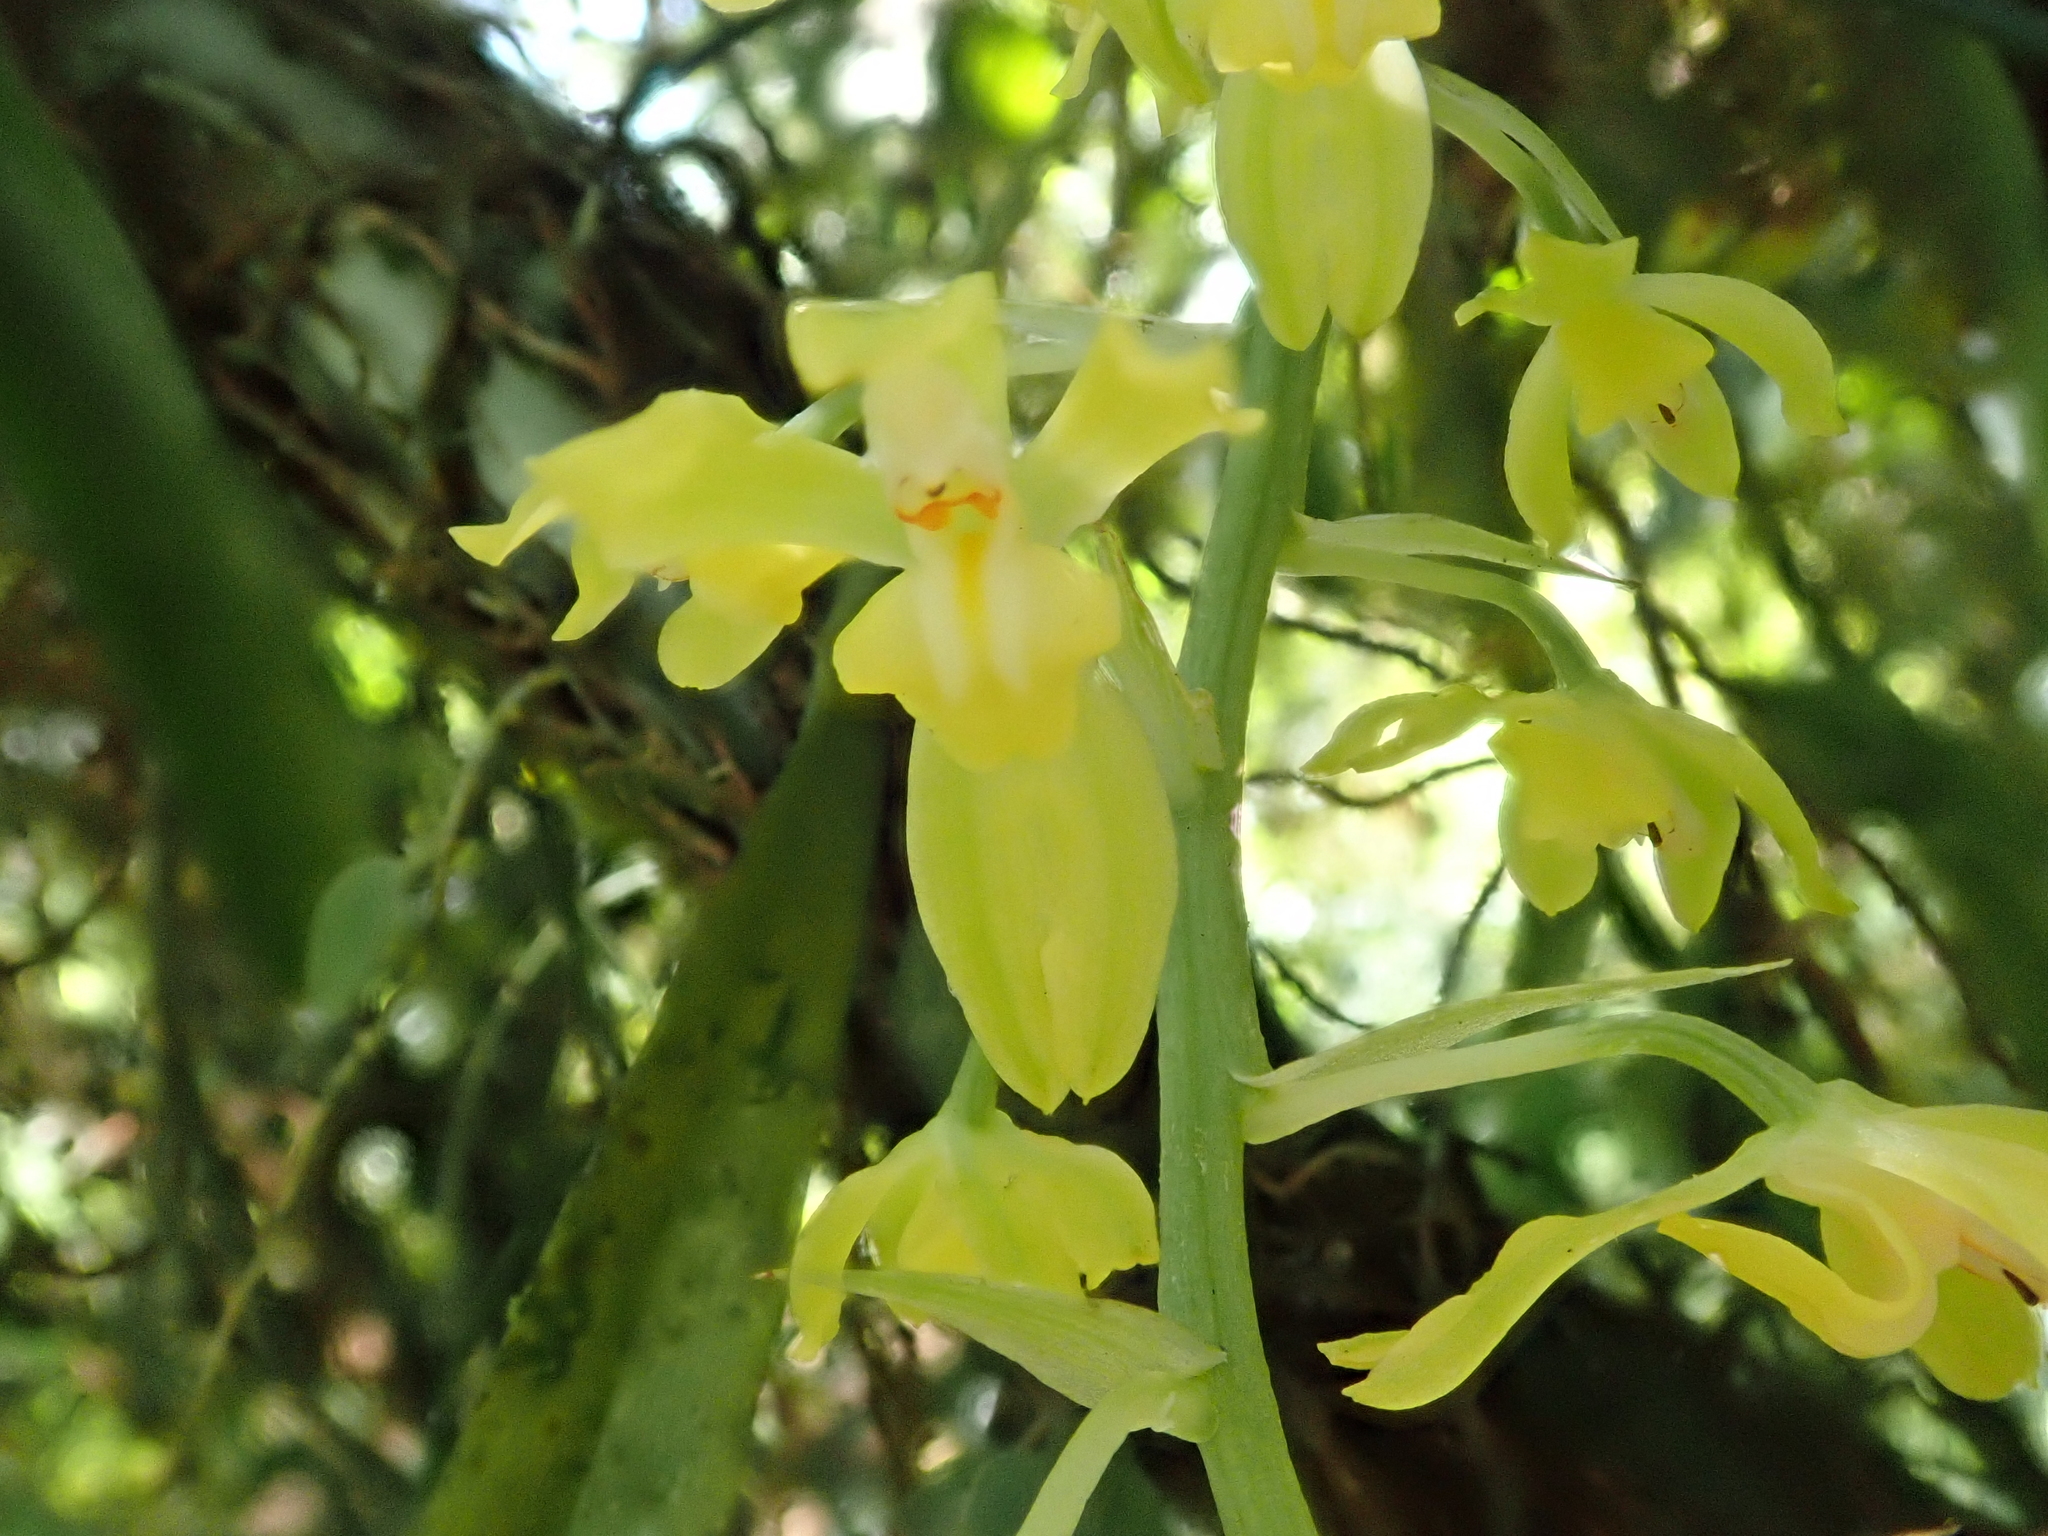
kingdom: Plantae
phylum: Tracheophyta
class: Liliopsida
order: Asparagales
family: Orchidaceae
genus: Gomesa
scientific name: Gomesa planifolia
